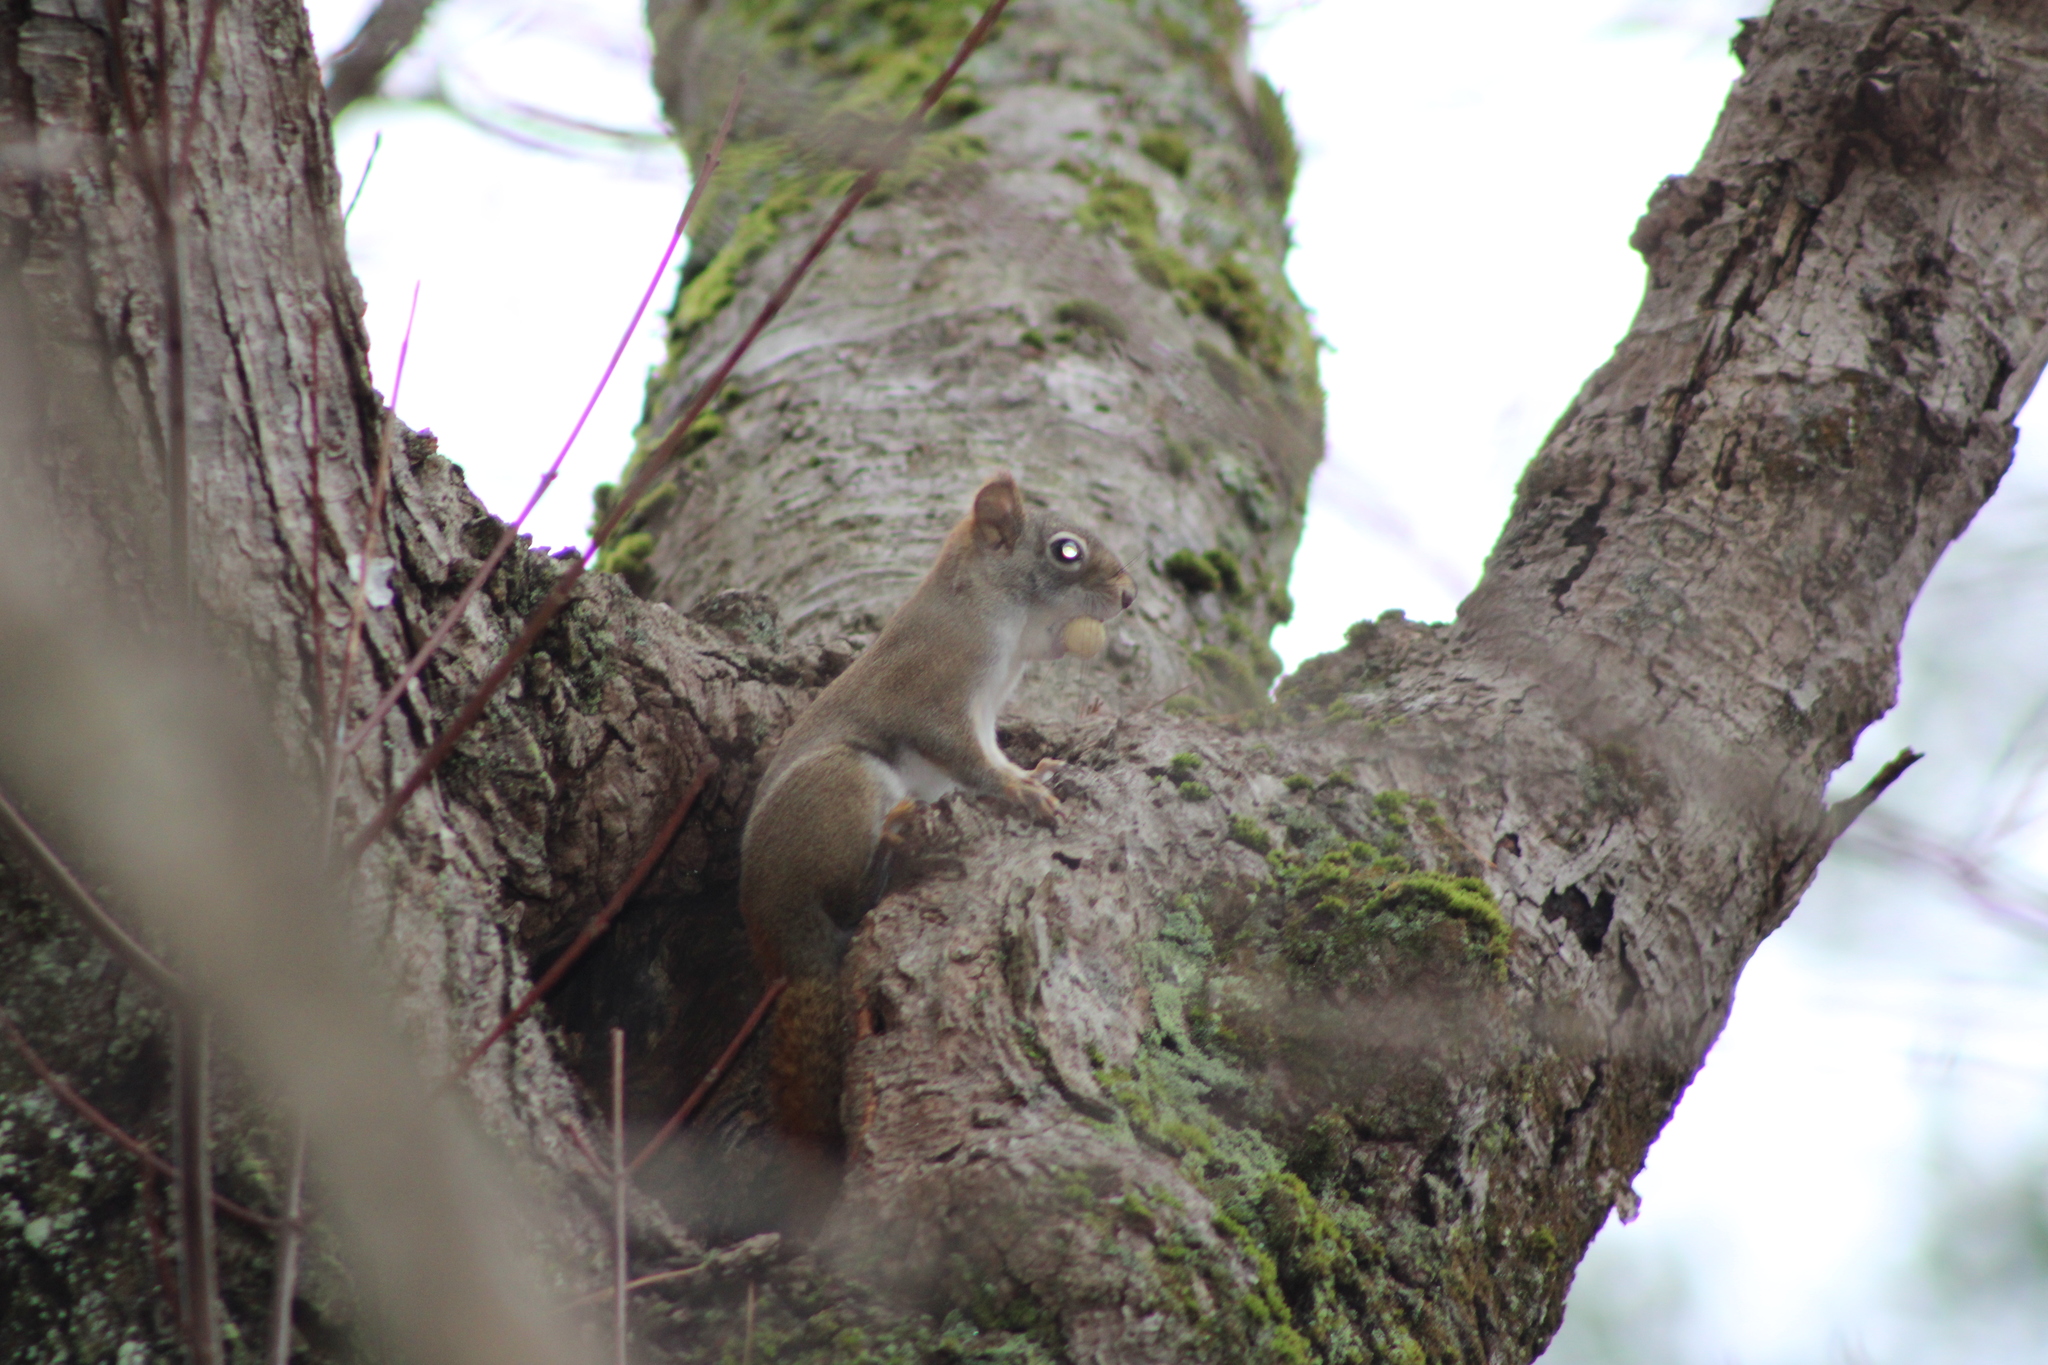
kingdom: Animalia
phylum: Chordata
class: Mammalia
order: Rodentia
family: Sciuridae
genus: Tamiasciurus
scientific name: Tamiasciurus hudsonicus
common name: Red squirrel
